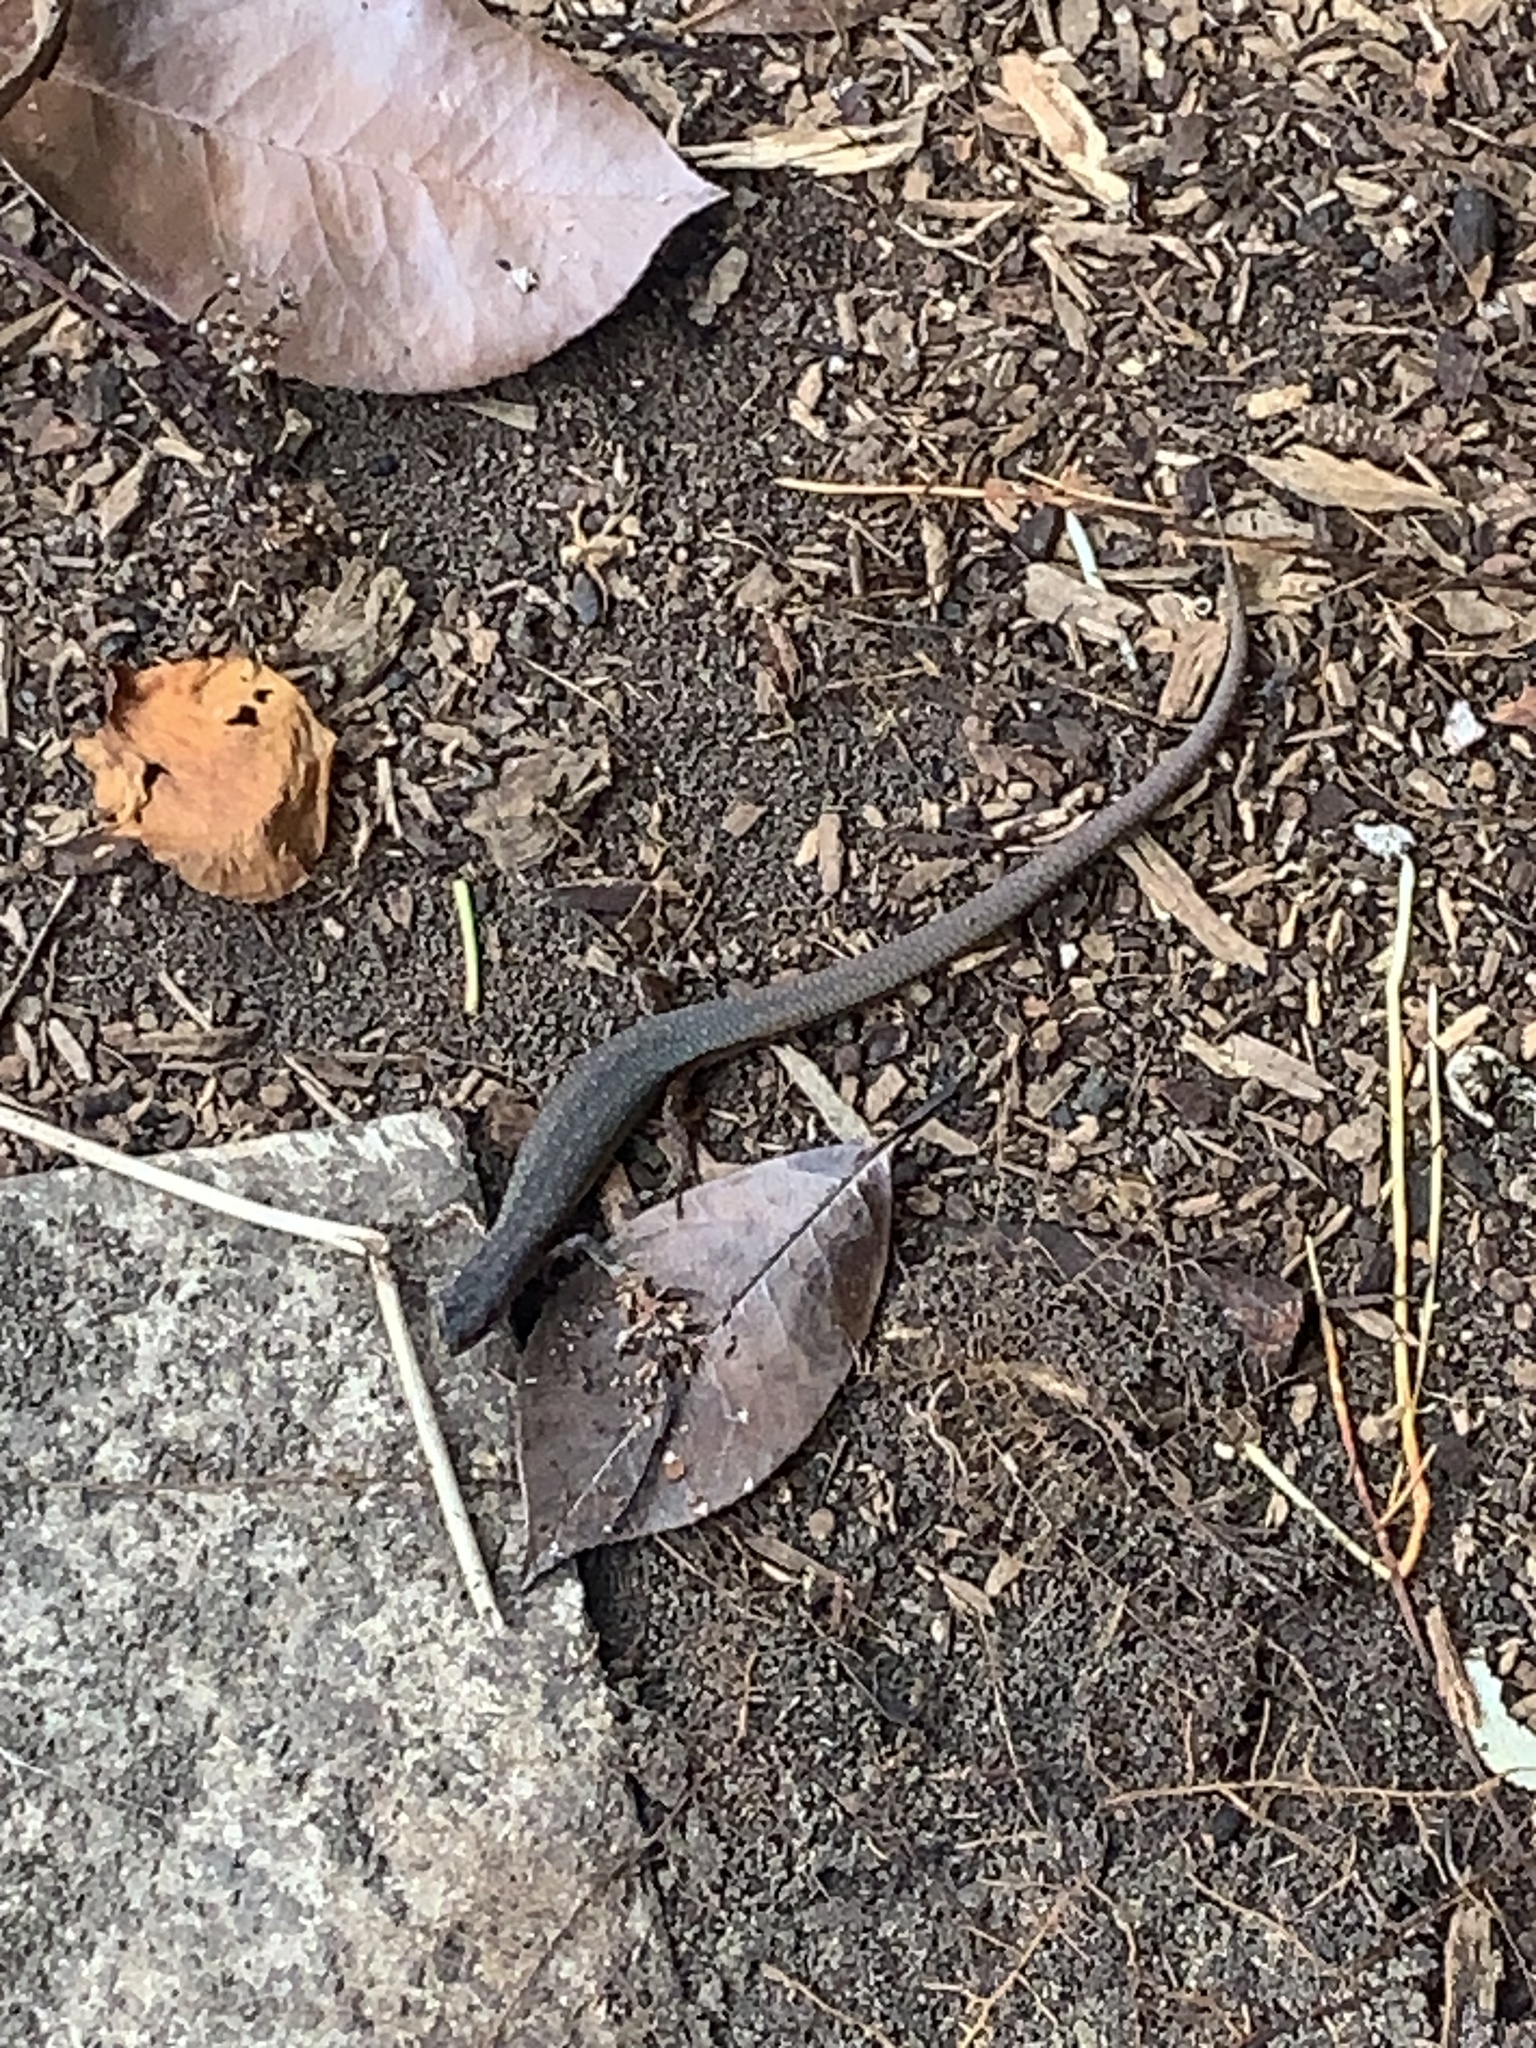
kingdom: Animalia
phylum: Chordata
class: Squamata
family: Scincidae
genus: Saproscincus
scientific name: Saproscincus mustelinus
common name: Southern weasel skink
